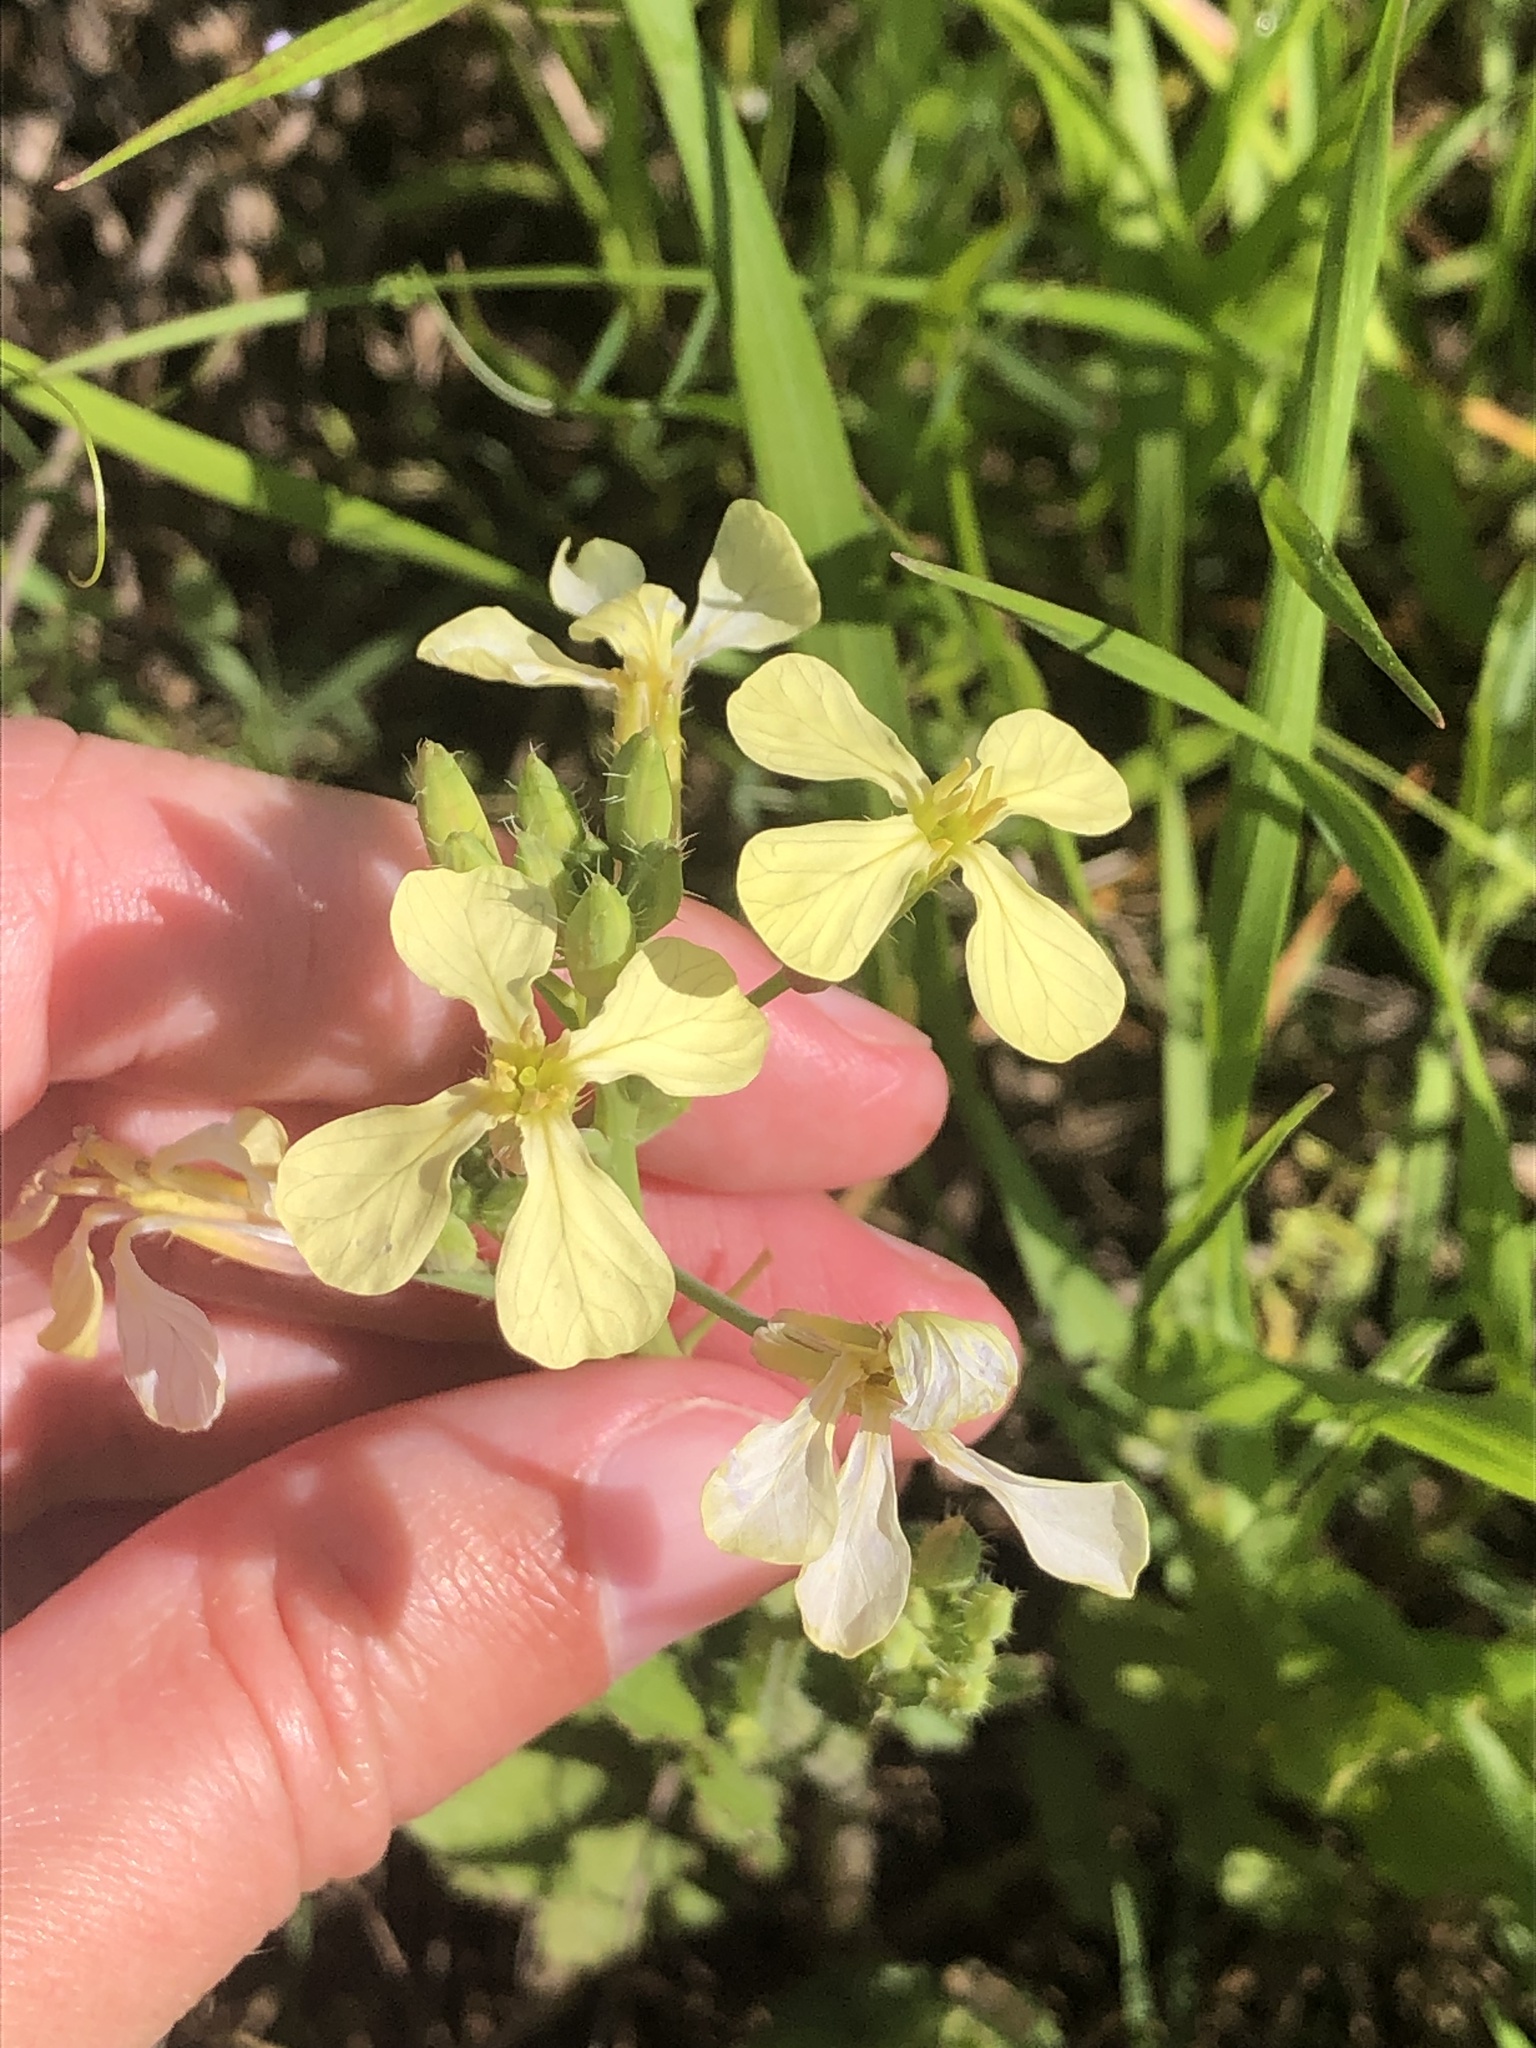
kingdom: Plantae
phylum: Tracheophyta
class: Magnoliopsida
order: Brassicales
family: Brassicaceae
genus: Raphanus
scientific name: Raphanus raphanistrum
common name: Wild radish
